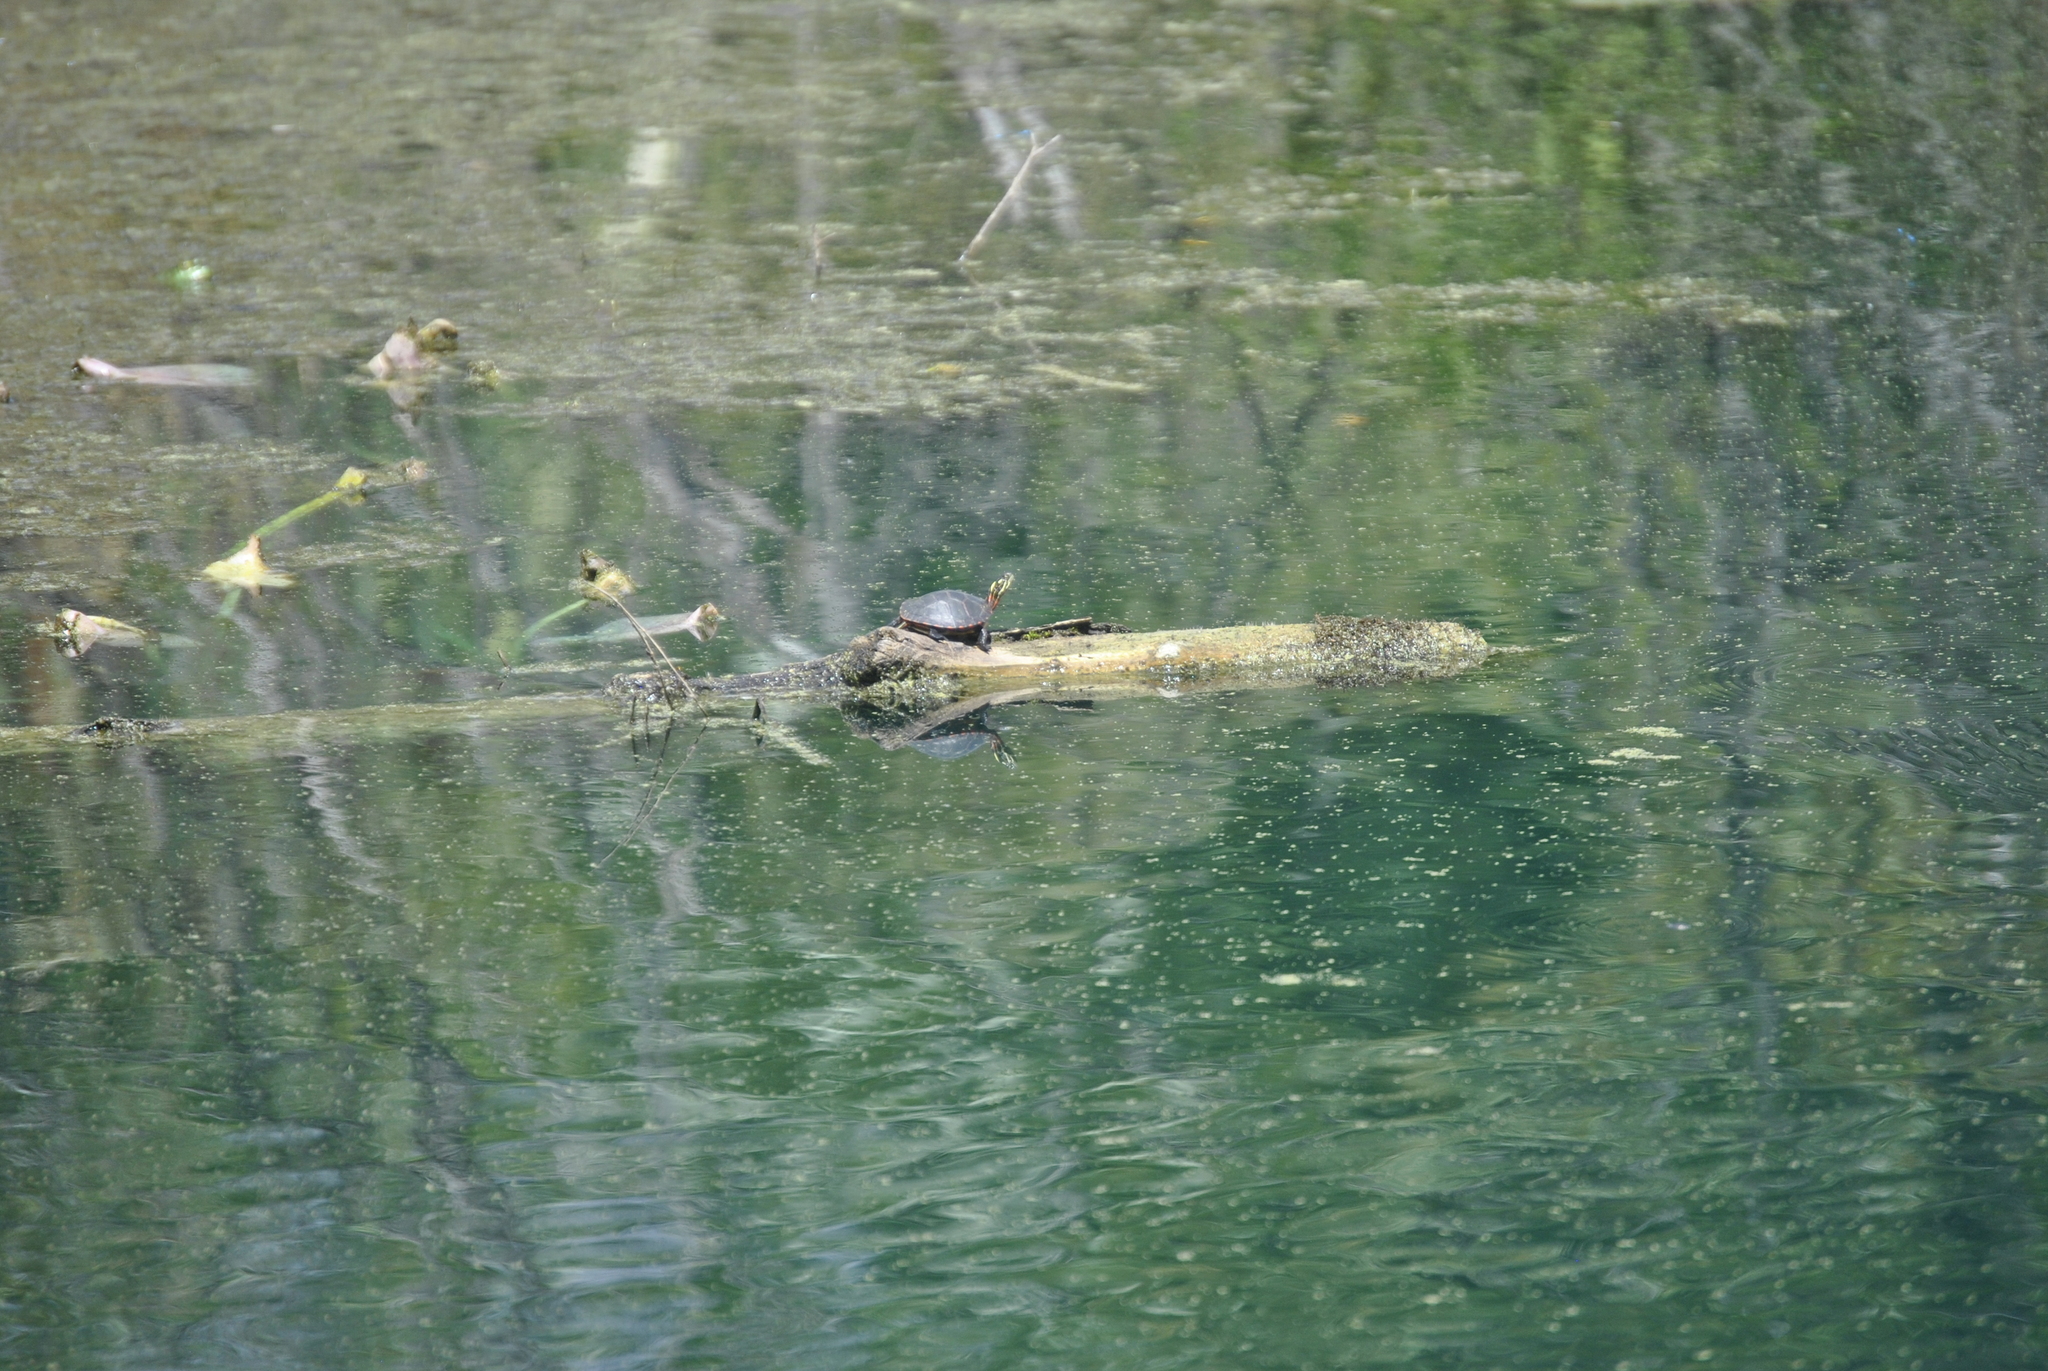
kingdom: Animalia
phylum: Chordata
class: Testudines
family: Emydidae
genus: Chrysemys
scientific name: Chrysemys picta
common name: Painted turtle
